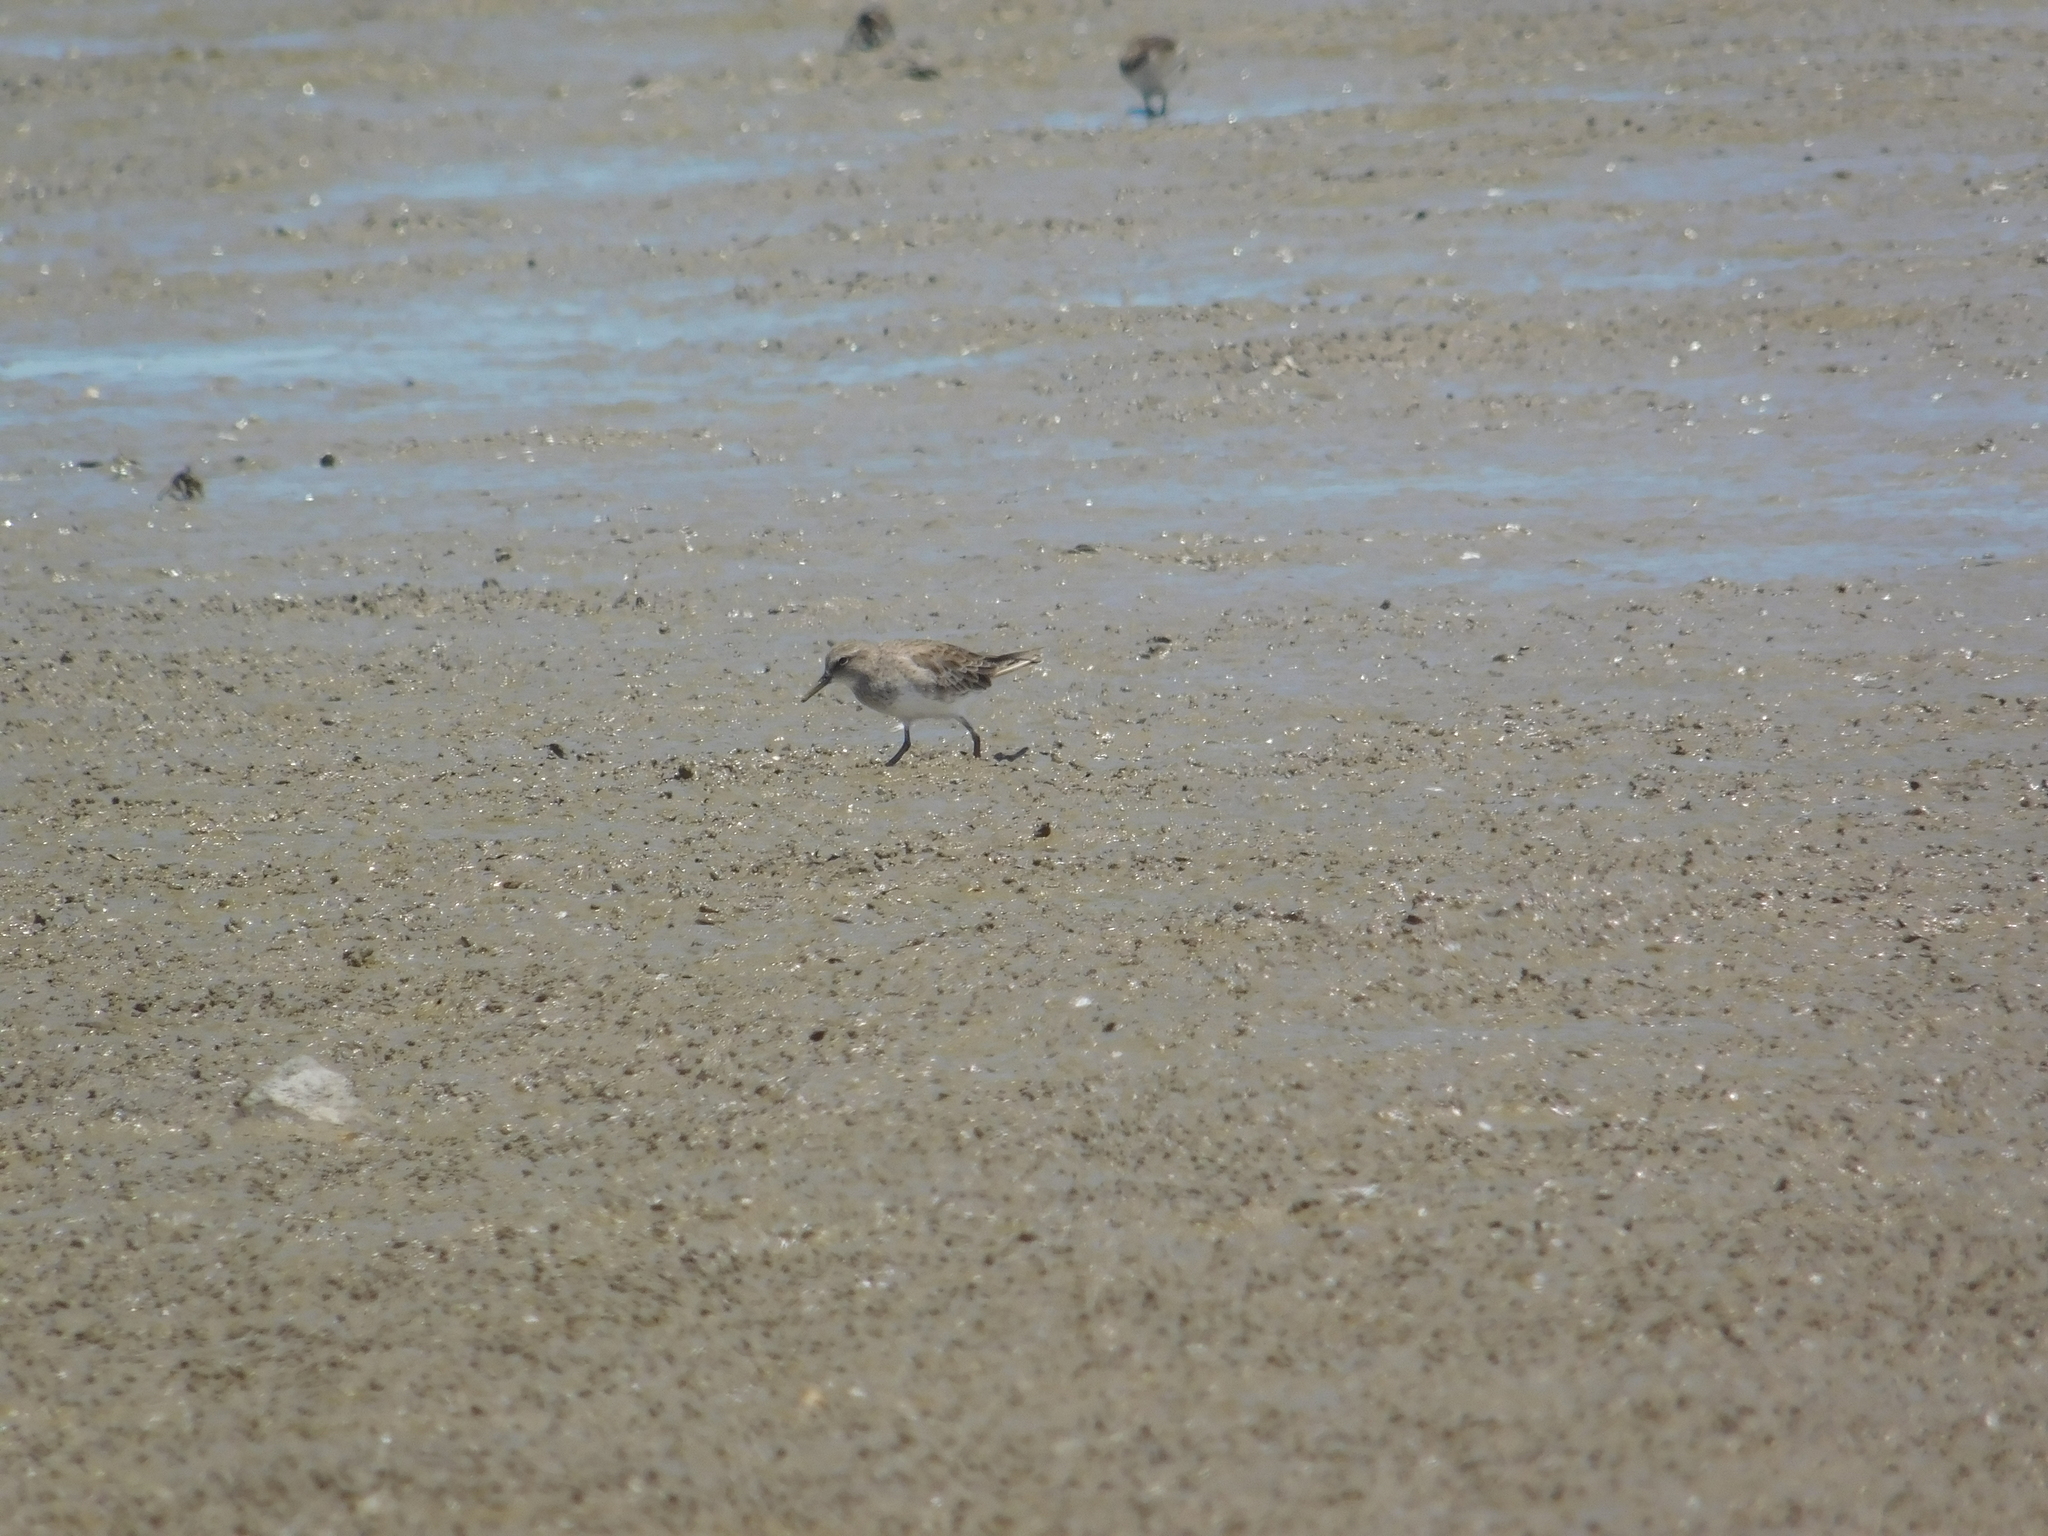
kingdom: Animalia
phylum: Chordata
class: Aves
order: Charadriiformes
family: Scolopacidae
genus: Calidris
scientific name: Calidris fuscicollis
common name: White-rumped sandpiper
